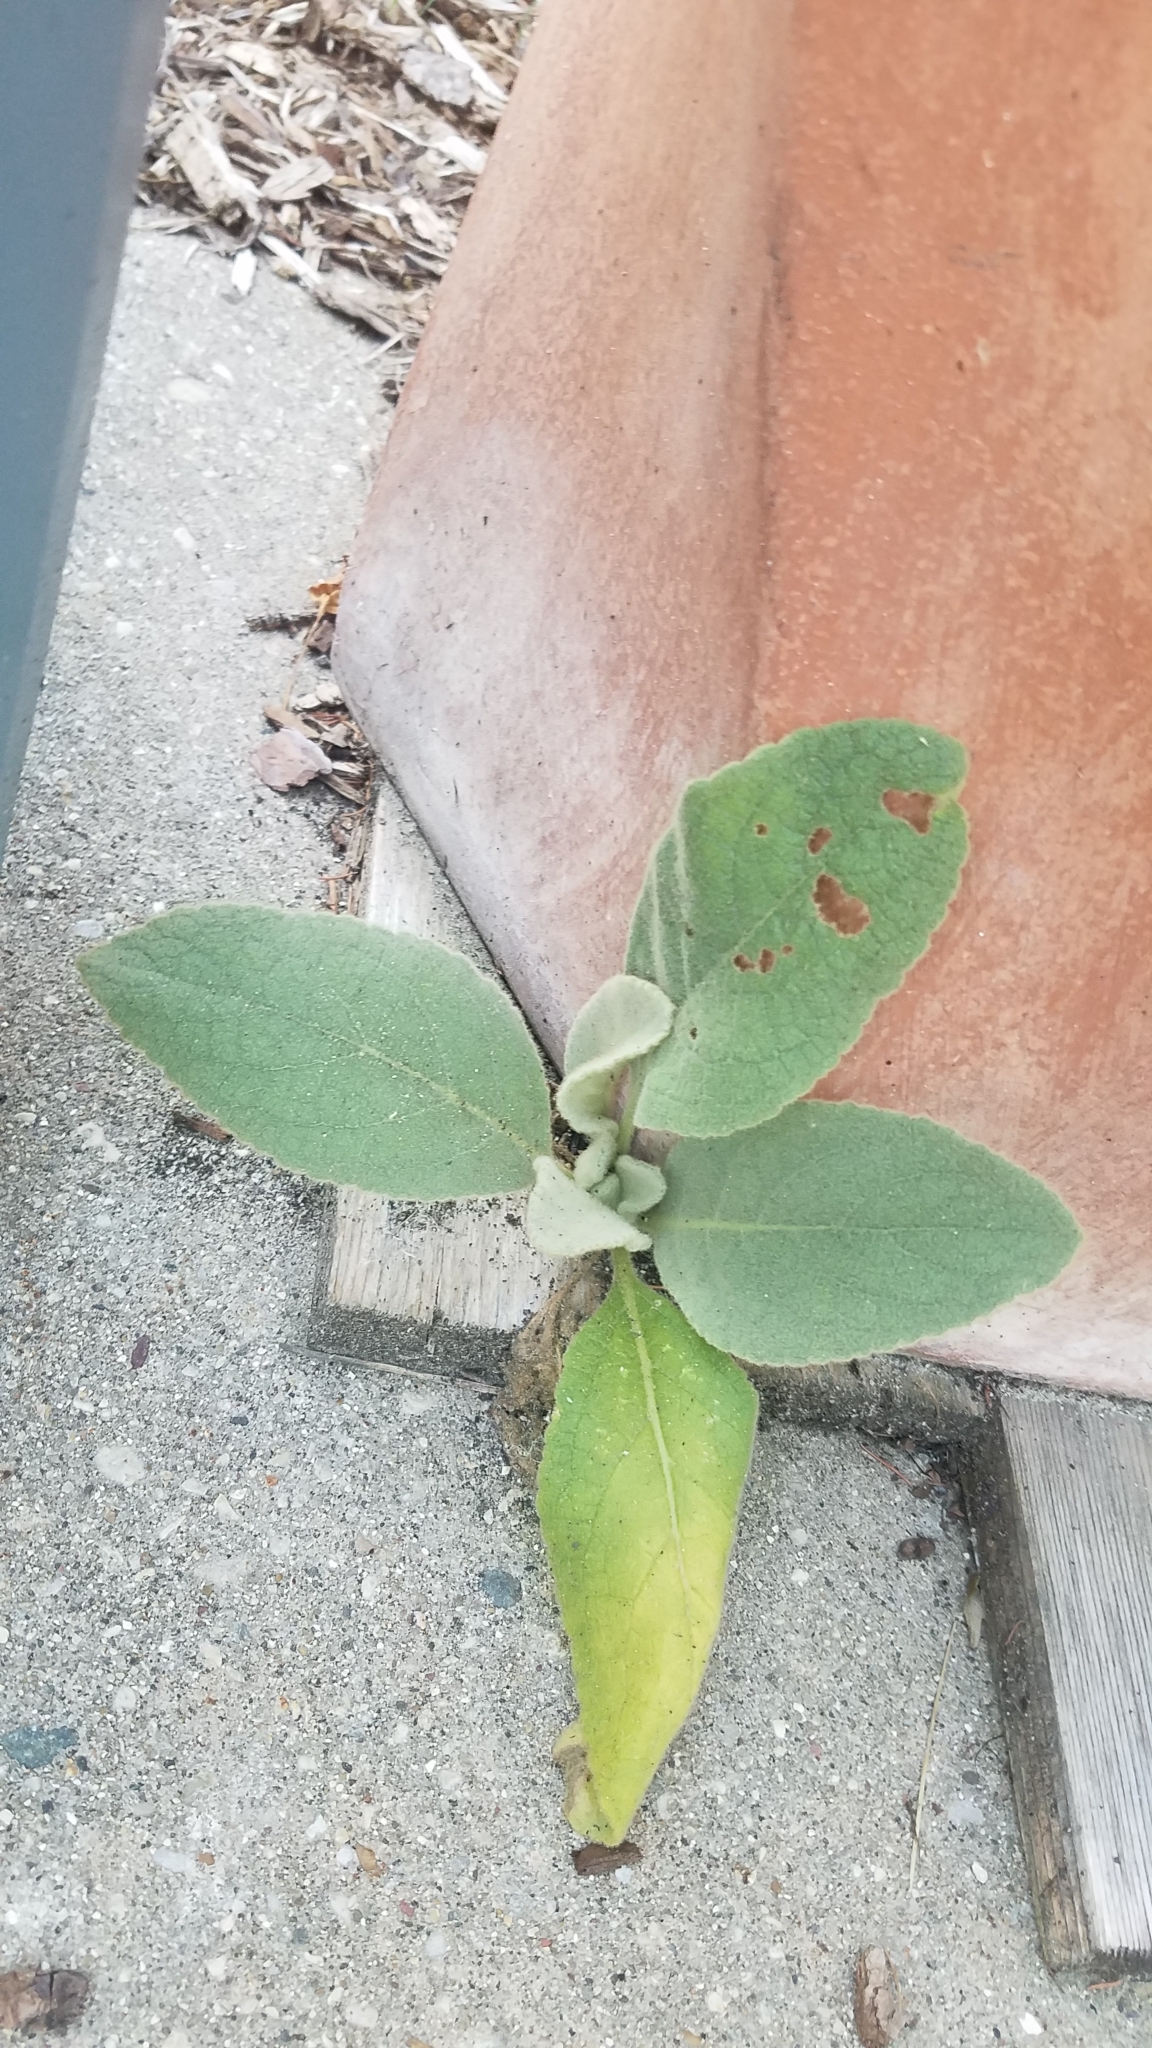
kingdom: Plantae
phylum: Tracheophyta
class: Magnoliopsida
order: Lamiales
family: Scrophulariaceae
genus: Verbascum
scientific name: Verbascum thapsus
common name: Common mullein
